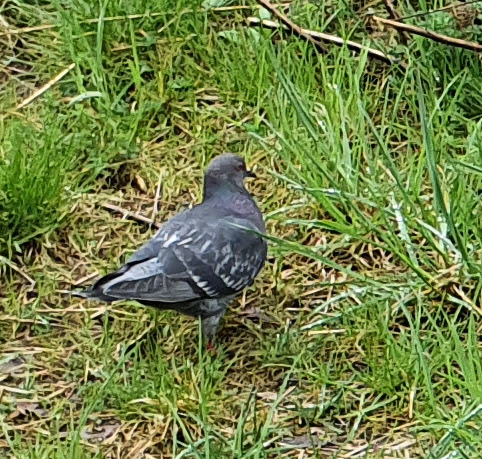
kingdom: Animalia
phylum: Chordata
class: Aves
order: Columbiformes
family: Columbidae
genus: Columba
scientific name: Columba livia
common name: Rock pigeon
